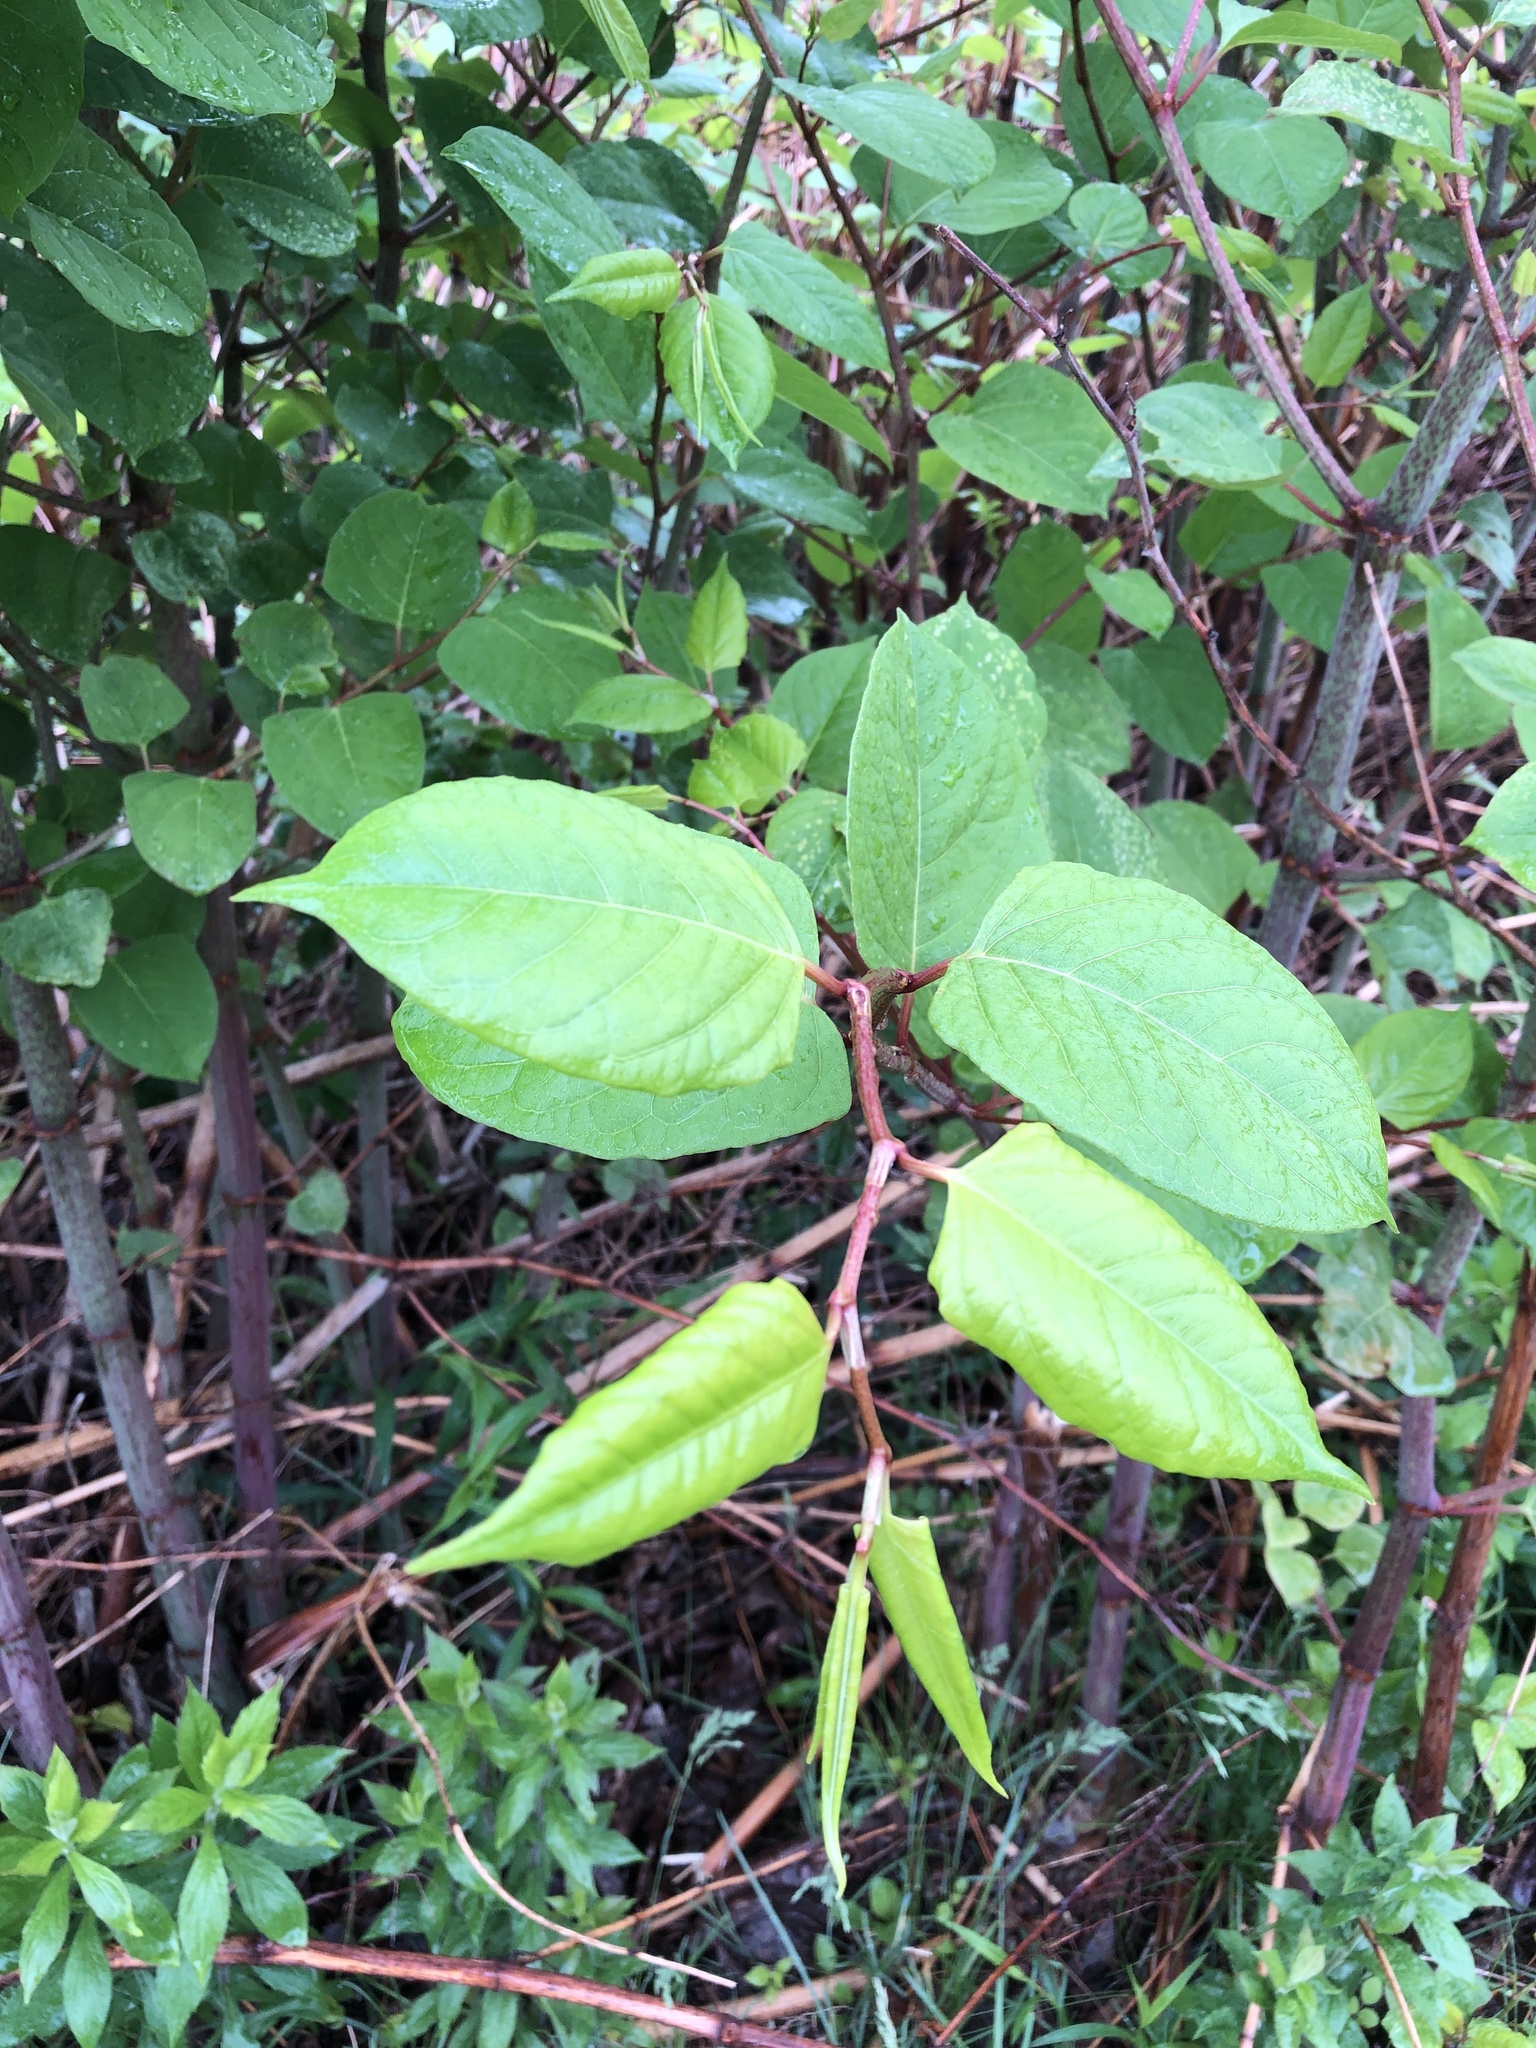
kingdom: Plantae
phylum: Tracheophyta
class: Magnoliopsida
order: Caryophyllales
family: Polygonaceae
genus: Reynoutria
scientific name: Reynoutria japonica
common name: Japanese knotweed
